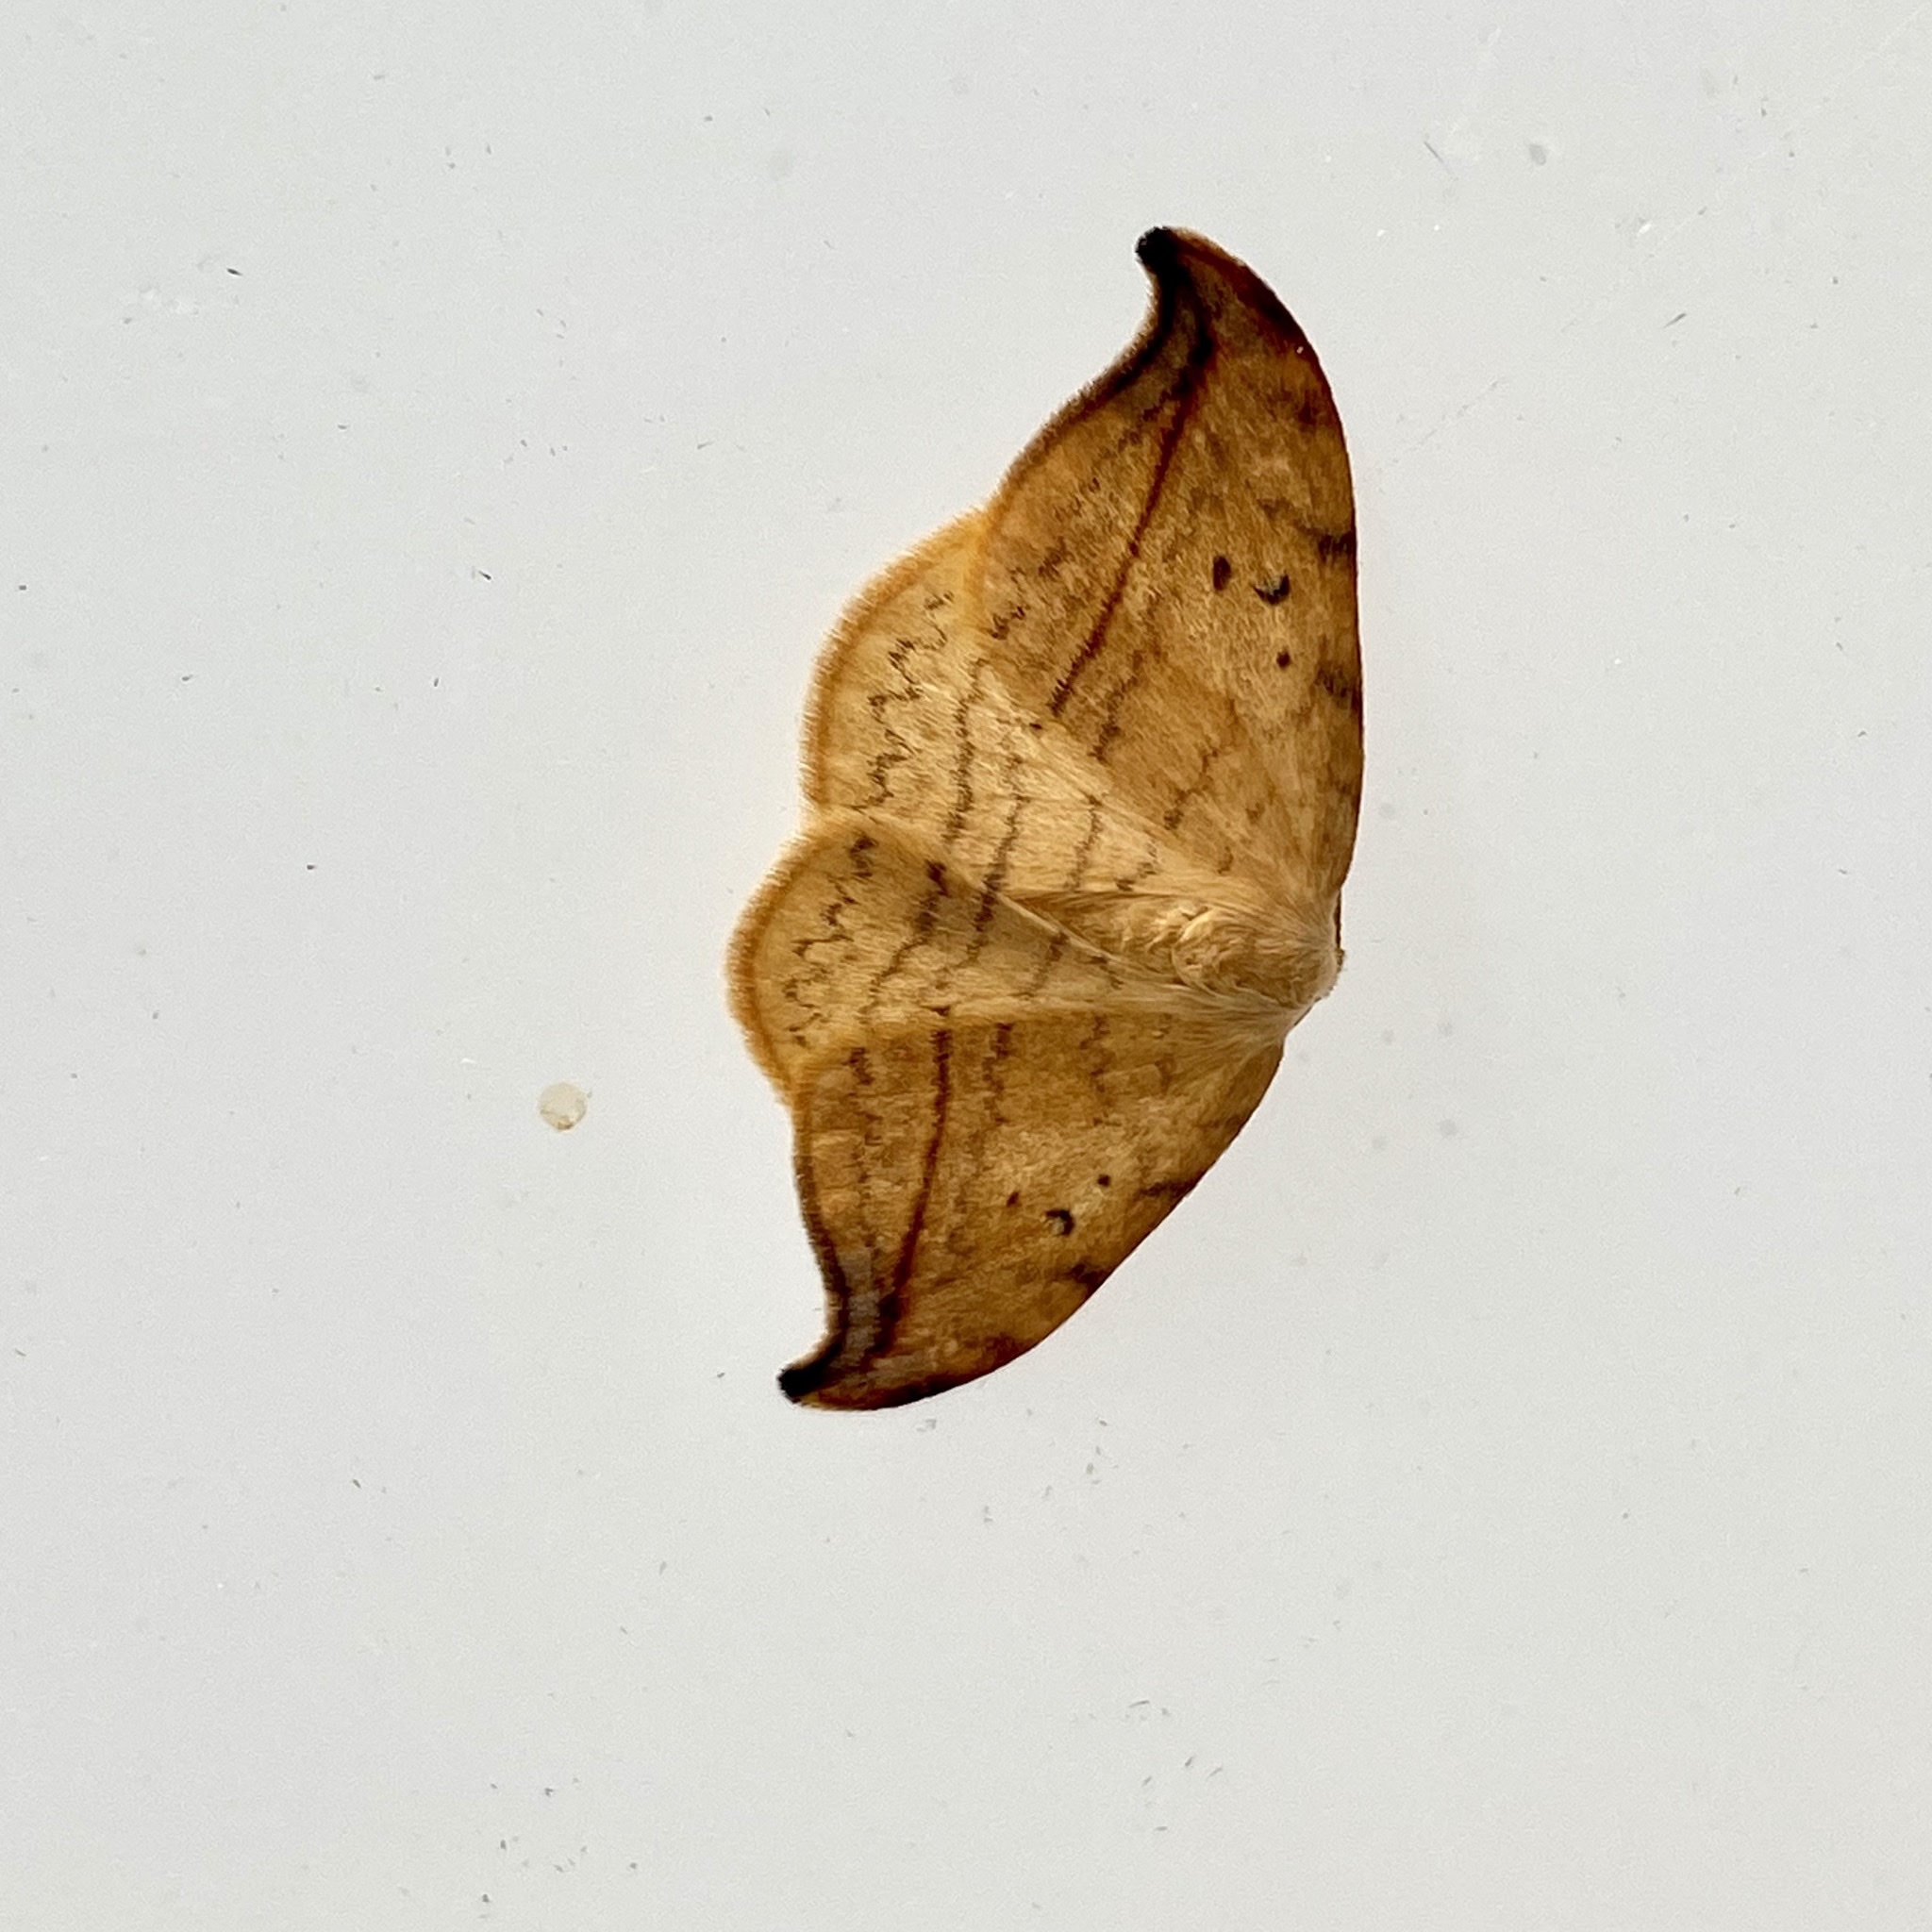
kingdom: Animalia
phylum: Arthropoda
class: Insecta
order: Lepidoptera
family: Drepanidae
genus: Drepana
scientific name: Drepana arcuata
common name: Arched hooktip moth
